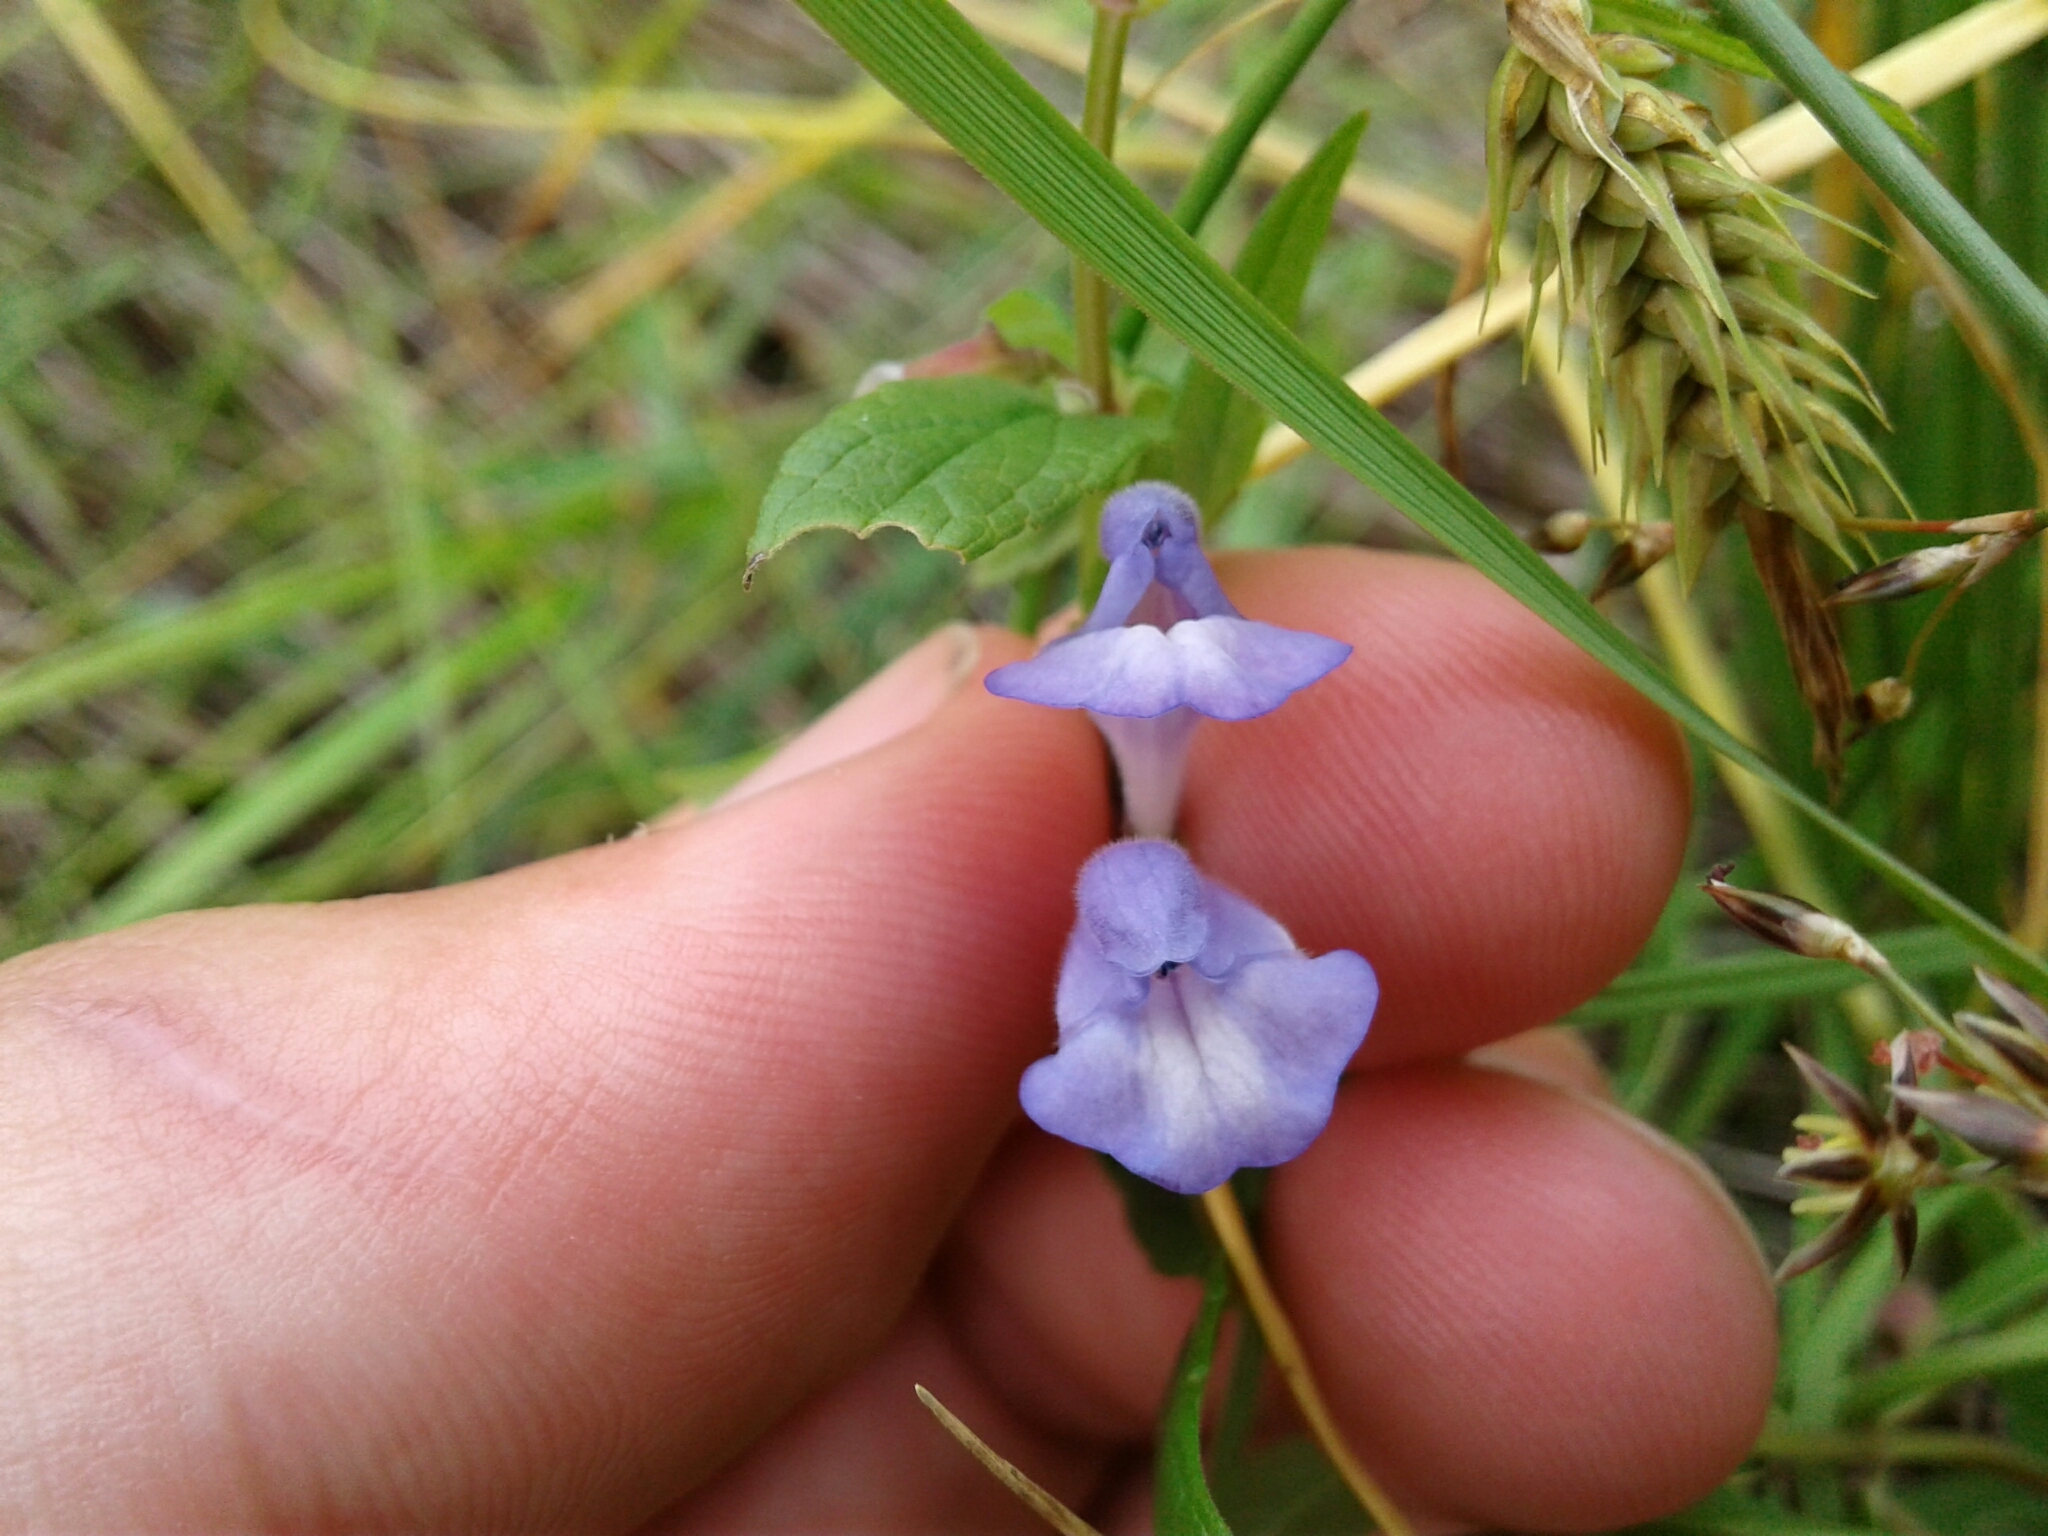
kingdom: Plantae
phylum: Tracheophyta
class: Magnoliopsida
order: Lamiales
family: Lamiaceae
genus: Scutellaria
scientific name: Scutellaria galericulata
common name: Skullcap
